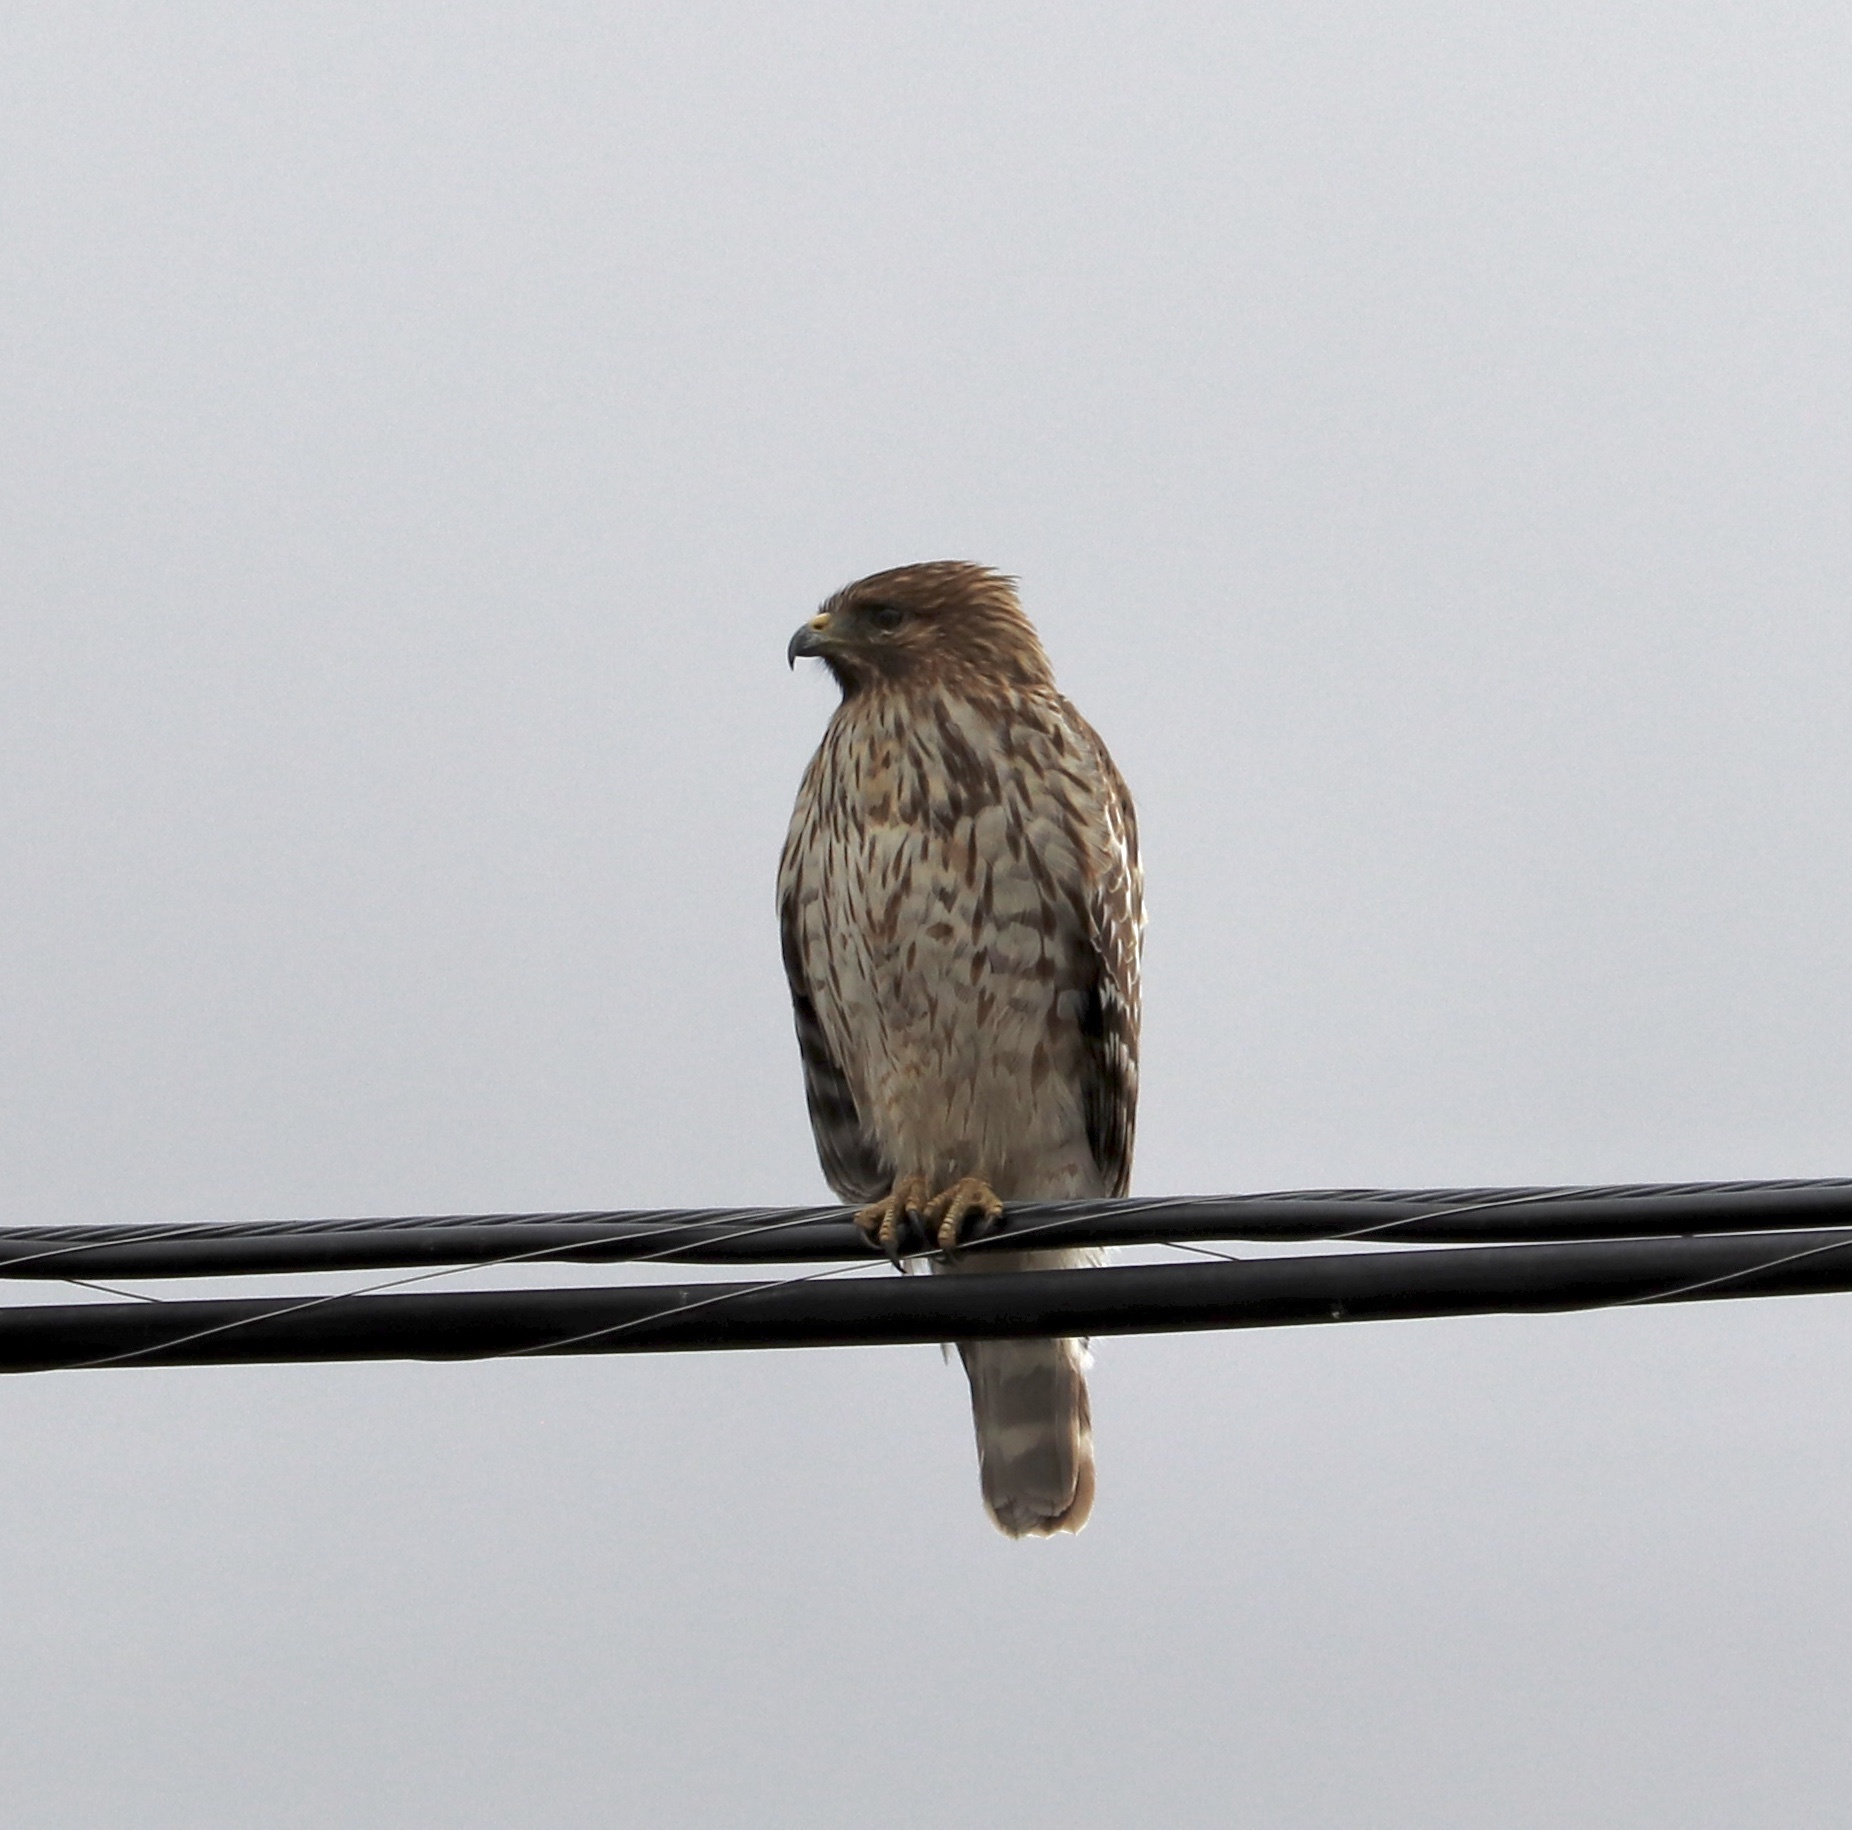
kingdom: Animalia
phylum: Chordata
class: Aves
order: Accipitriformes
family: Accipitridae
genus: Buteo
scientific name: Buteo lineatus
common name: Red-shouldered hawk
